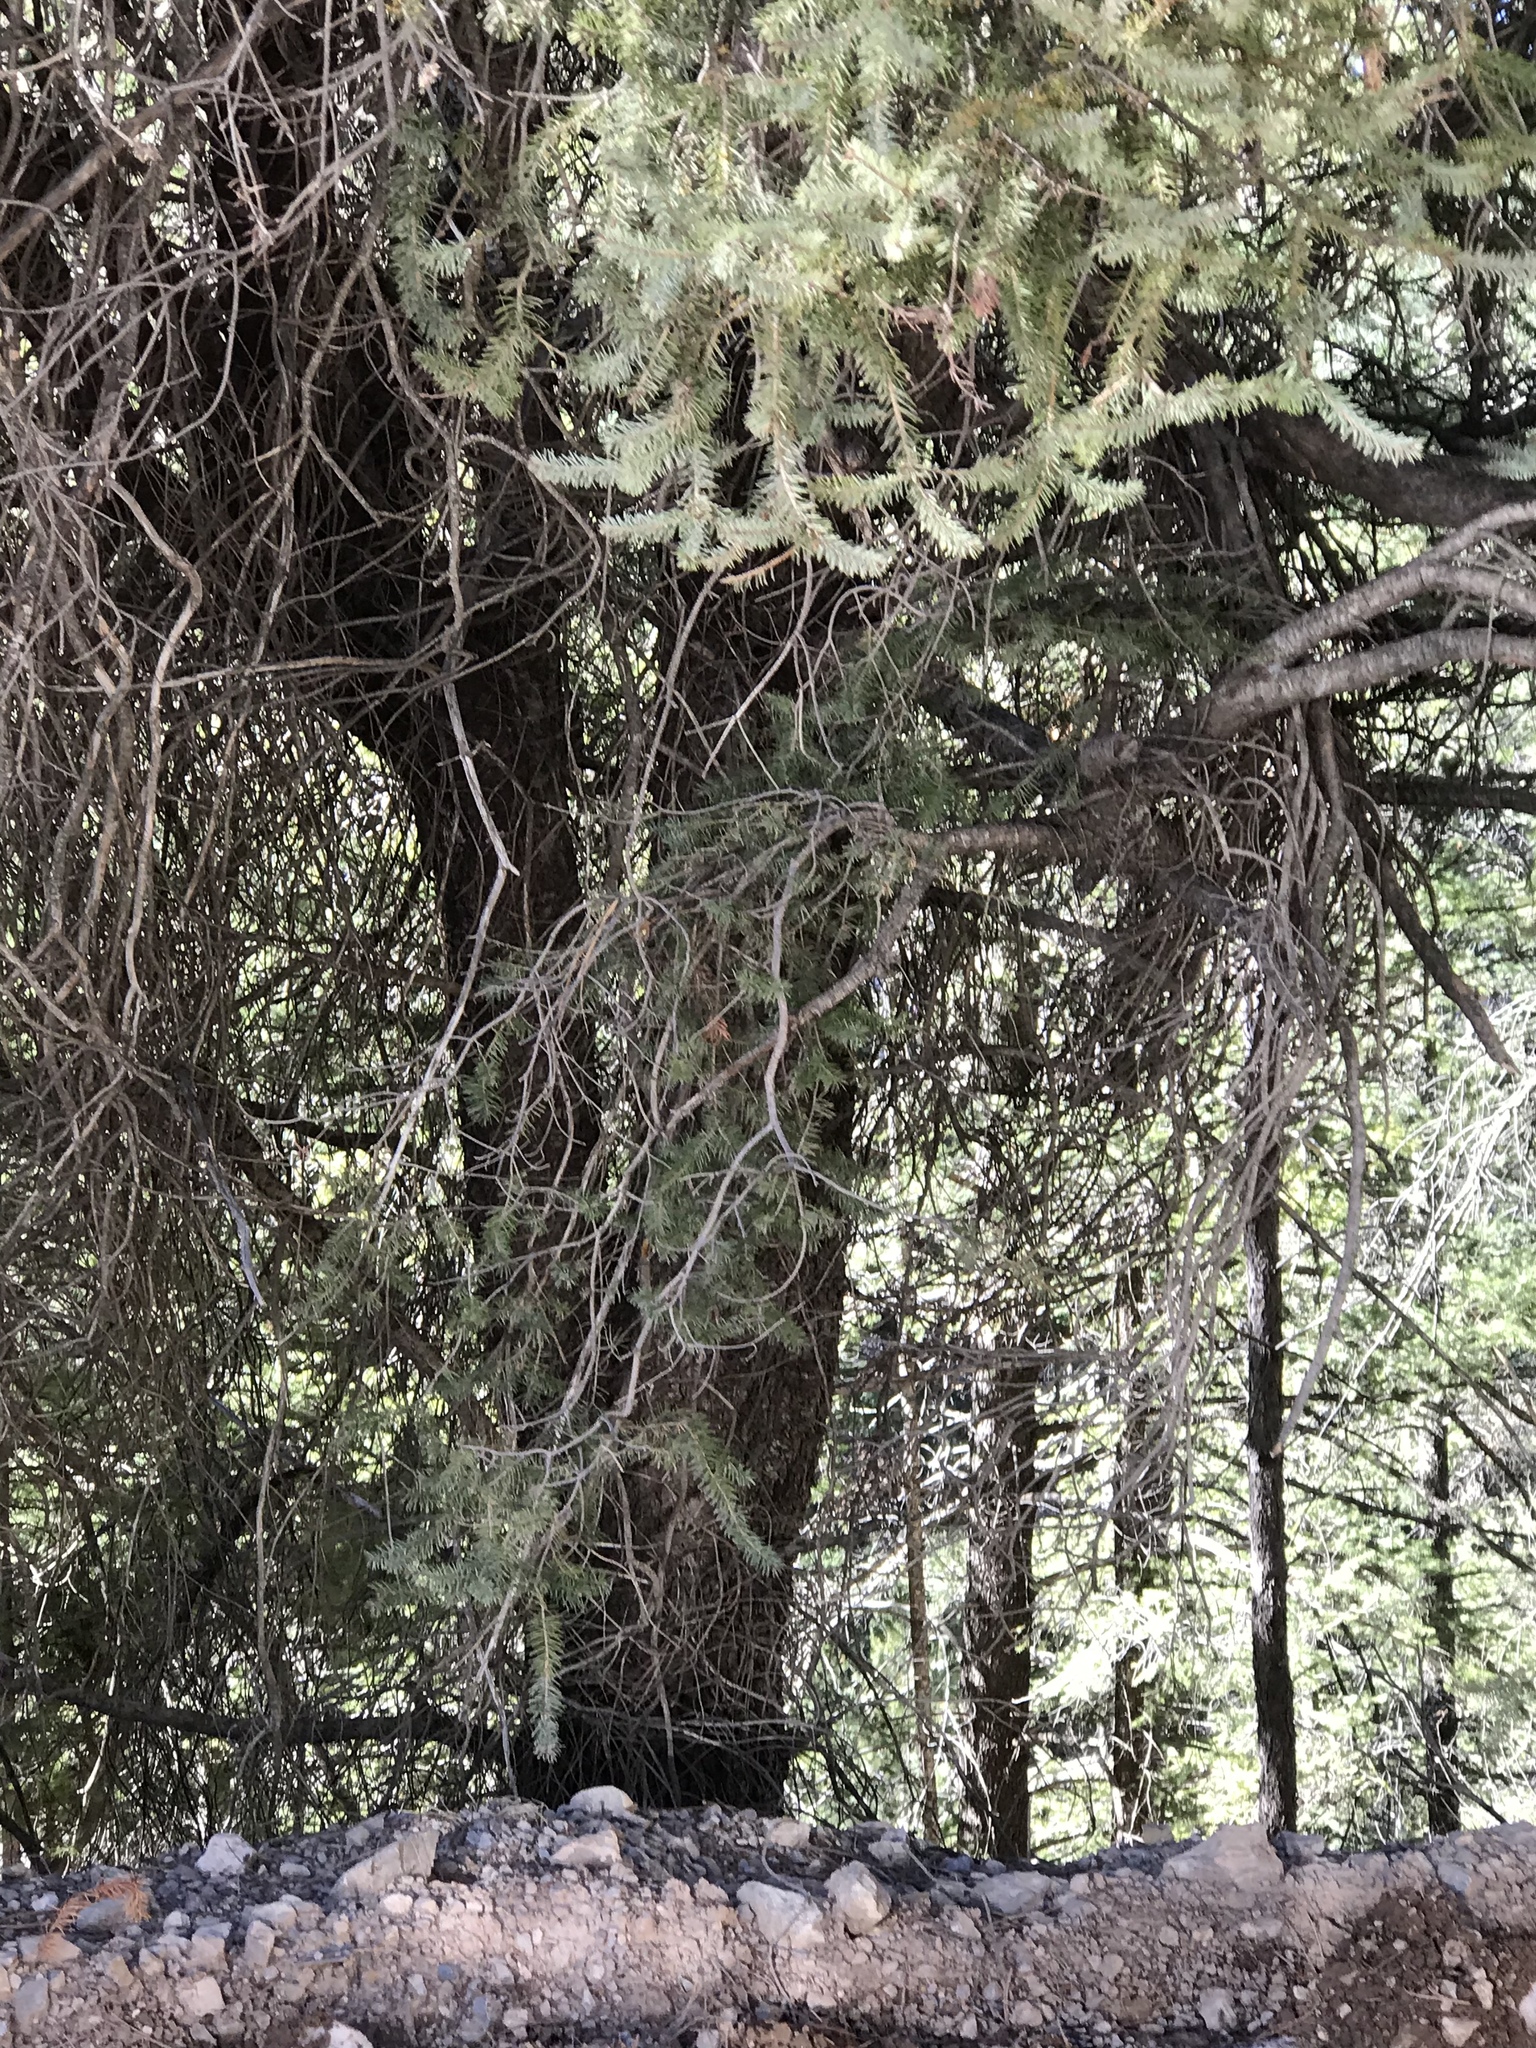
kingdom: Plantae
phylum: Tracheophyta
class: Pinopsida
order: Pinales
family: Pinaceae
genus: Pseudotsuga
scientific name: Pseudotsuga menziesii
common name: Douglas fir
